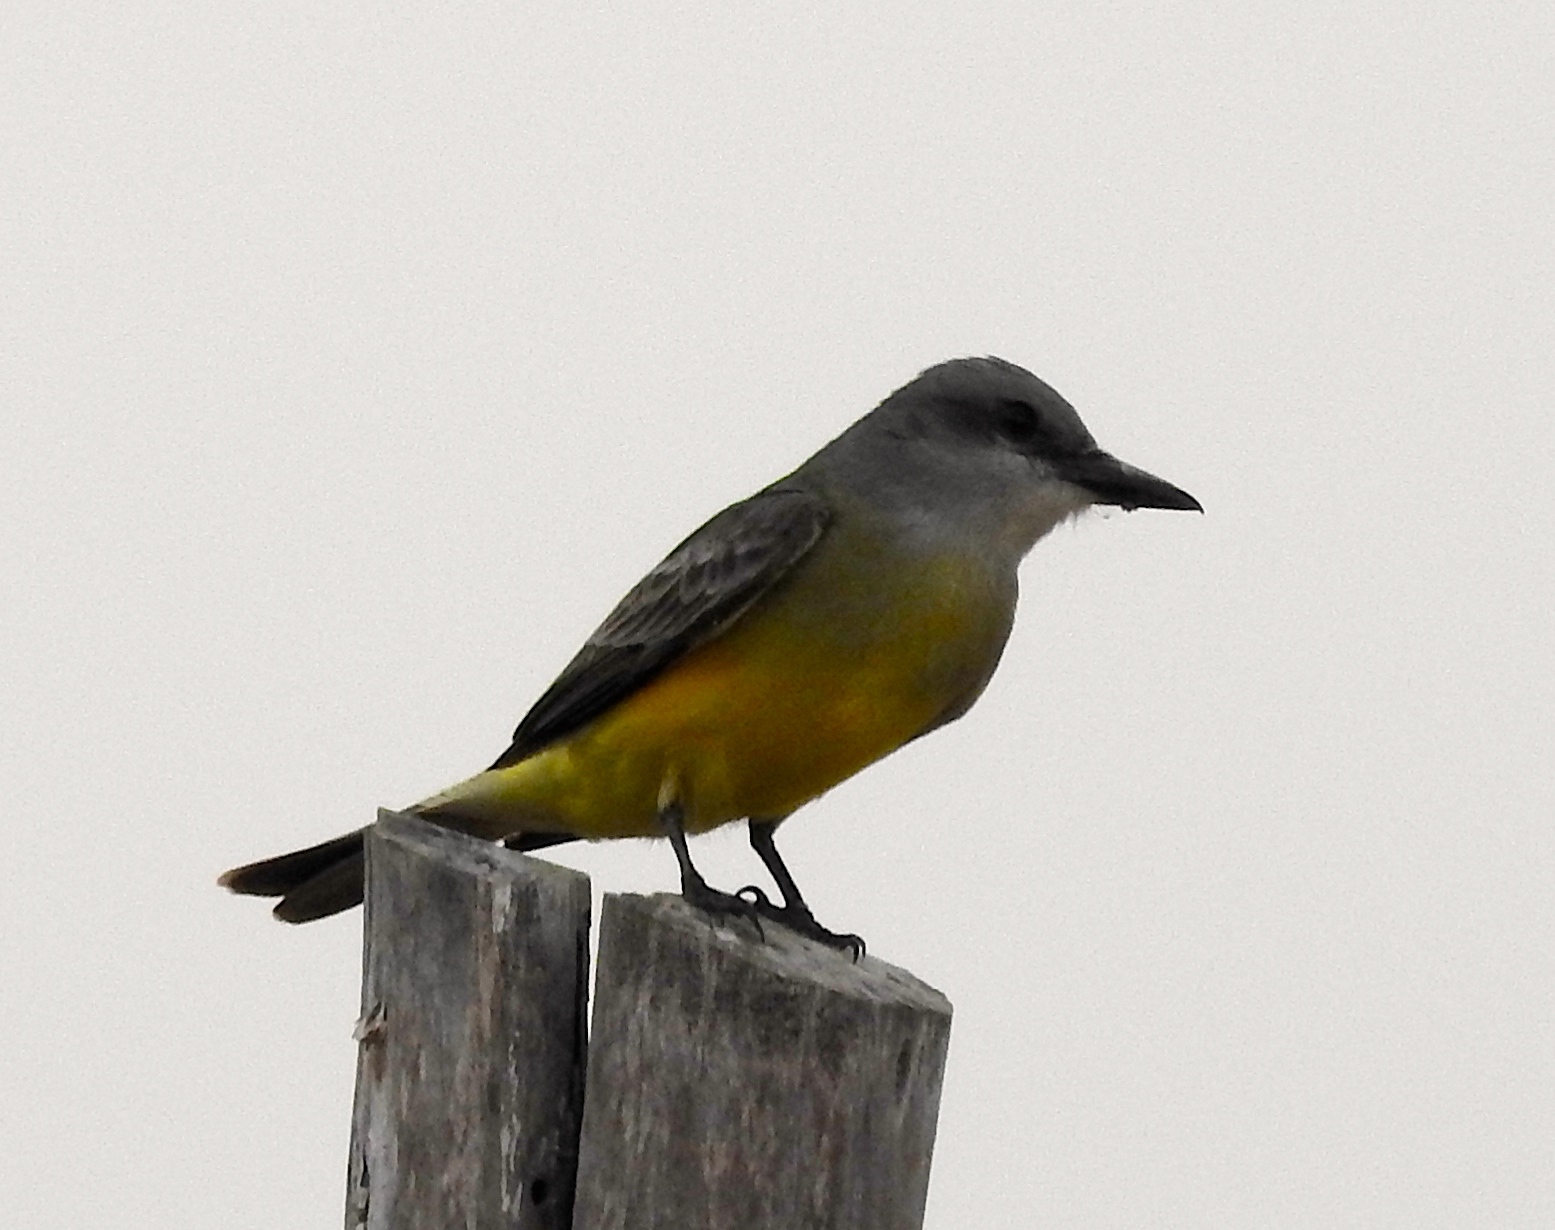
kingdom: Animalia
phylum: Chordata
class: Aves
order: Passeriformes
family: Tyrannidae
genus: Tyrannus
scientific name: Tyrannus melancholicus
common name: Tropical kingbird
